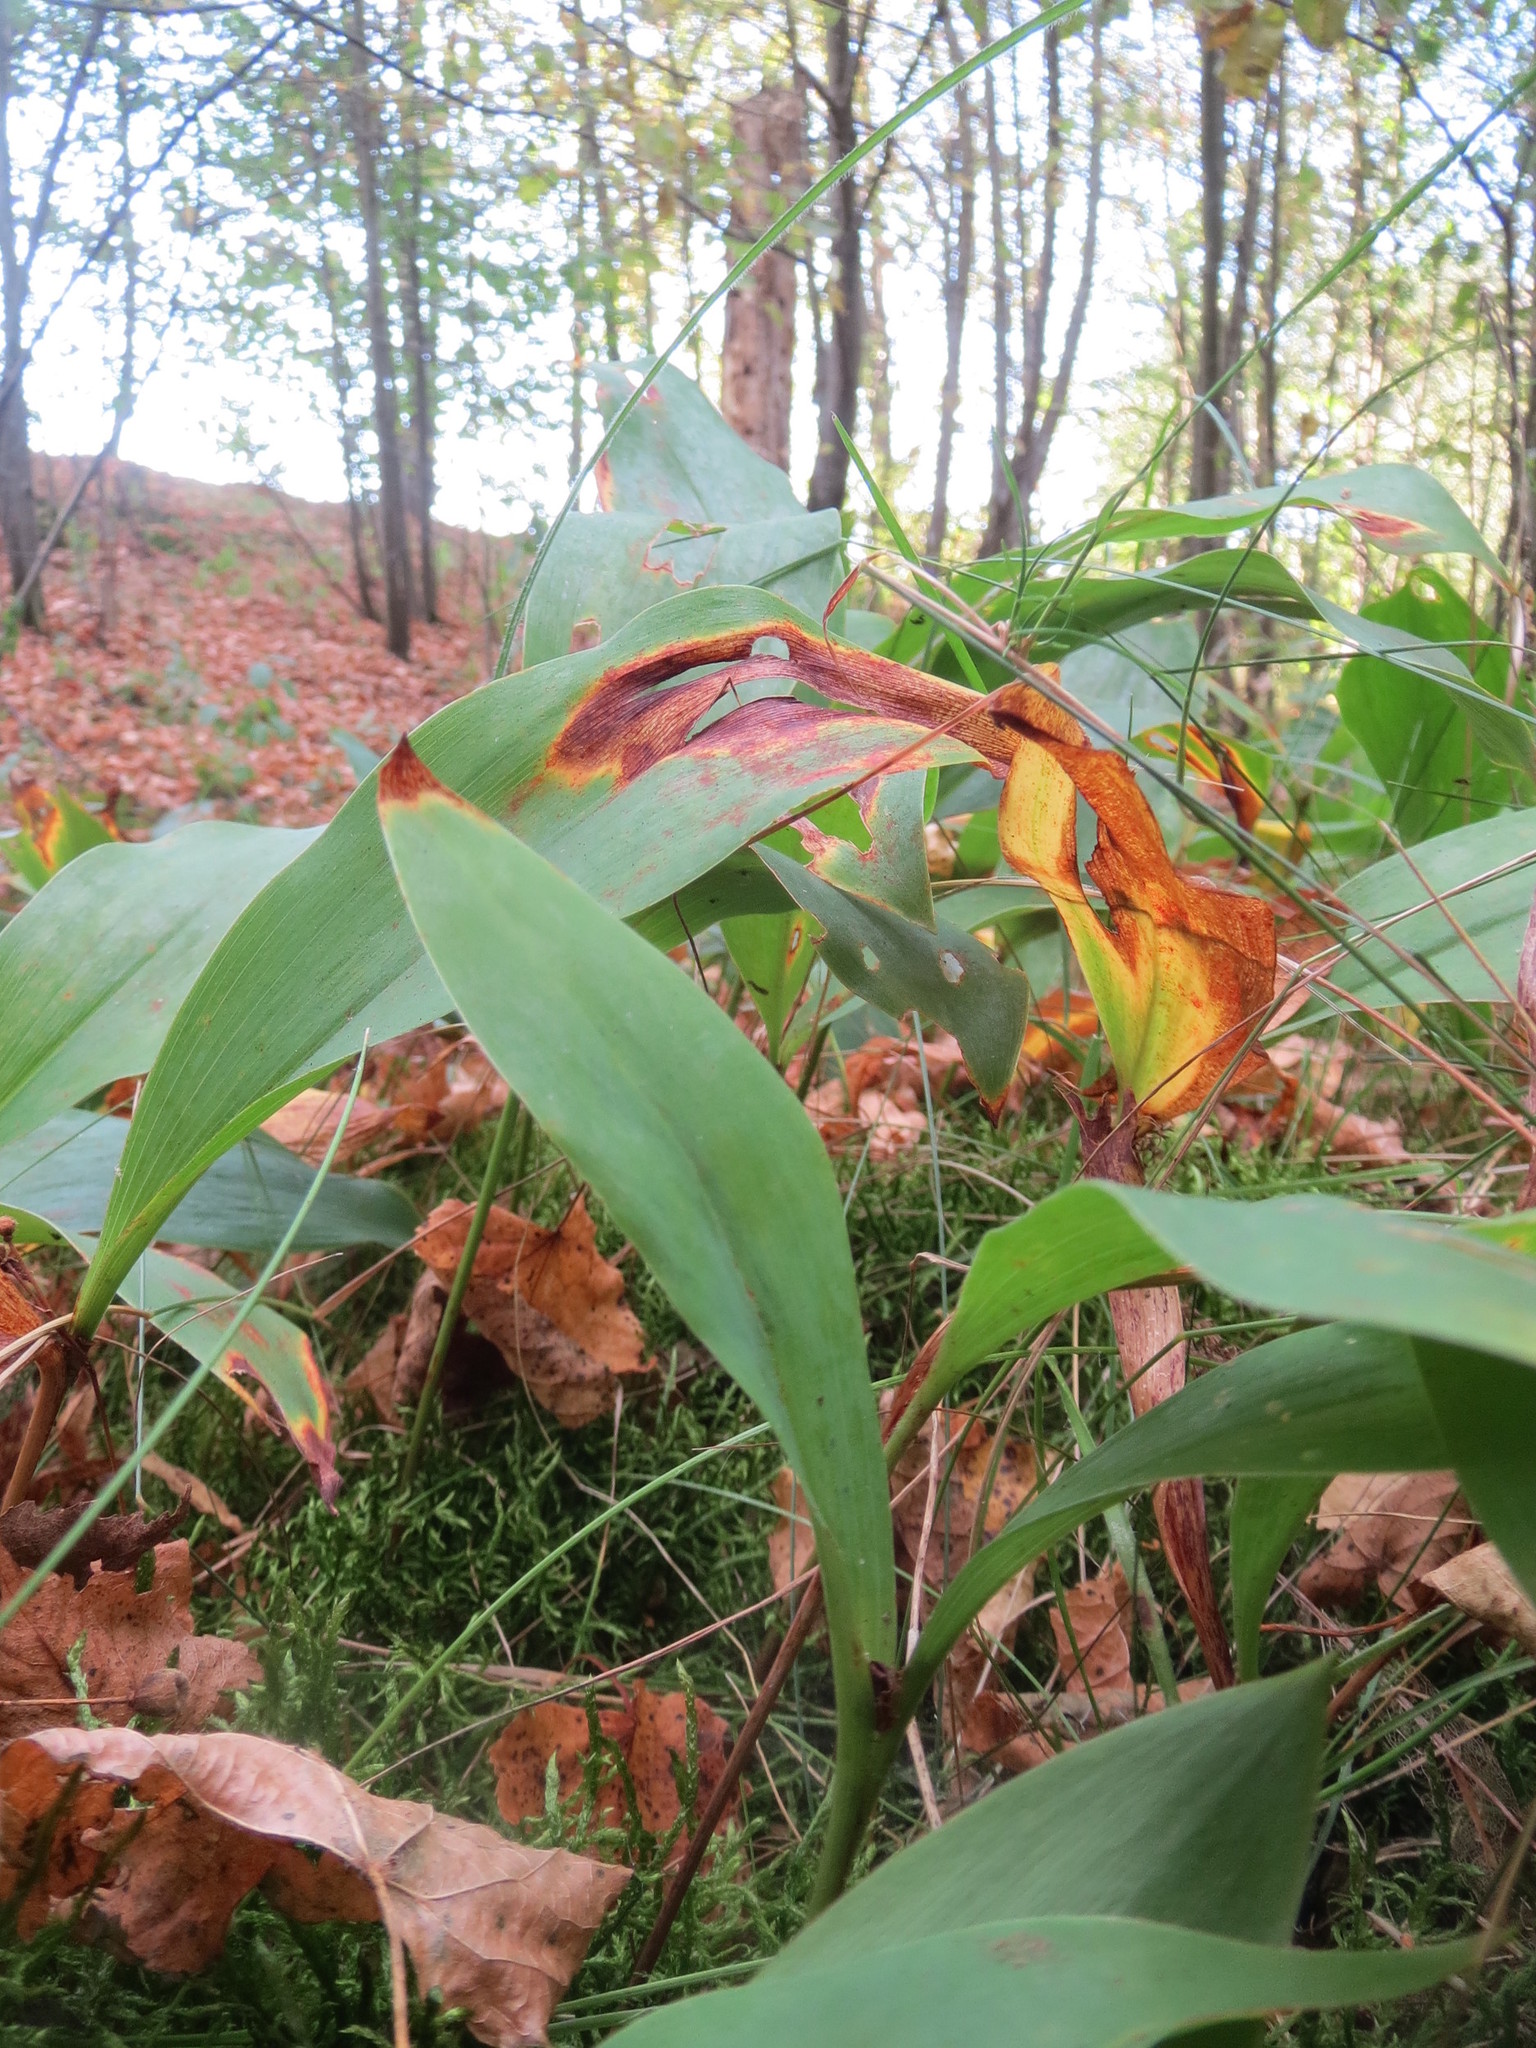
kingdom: Plantae
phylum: Tracheophyta
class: Liliopsida
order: Asparagales
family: Asparagaceae
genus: Convallaria
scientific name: Convallaria majalis
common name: Lily-of-the-valley
